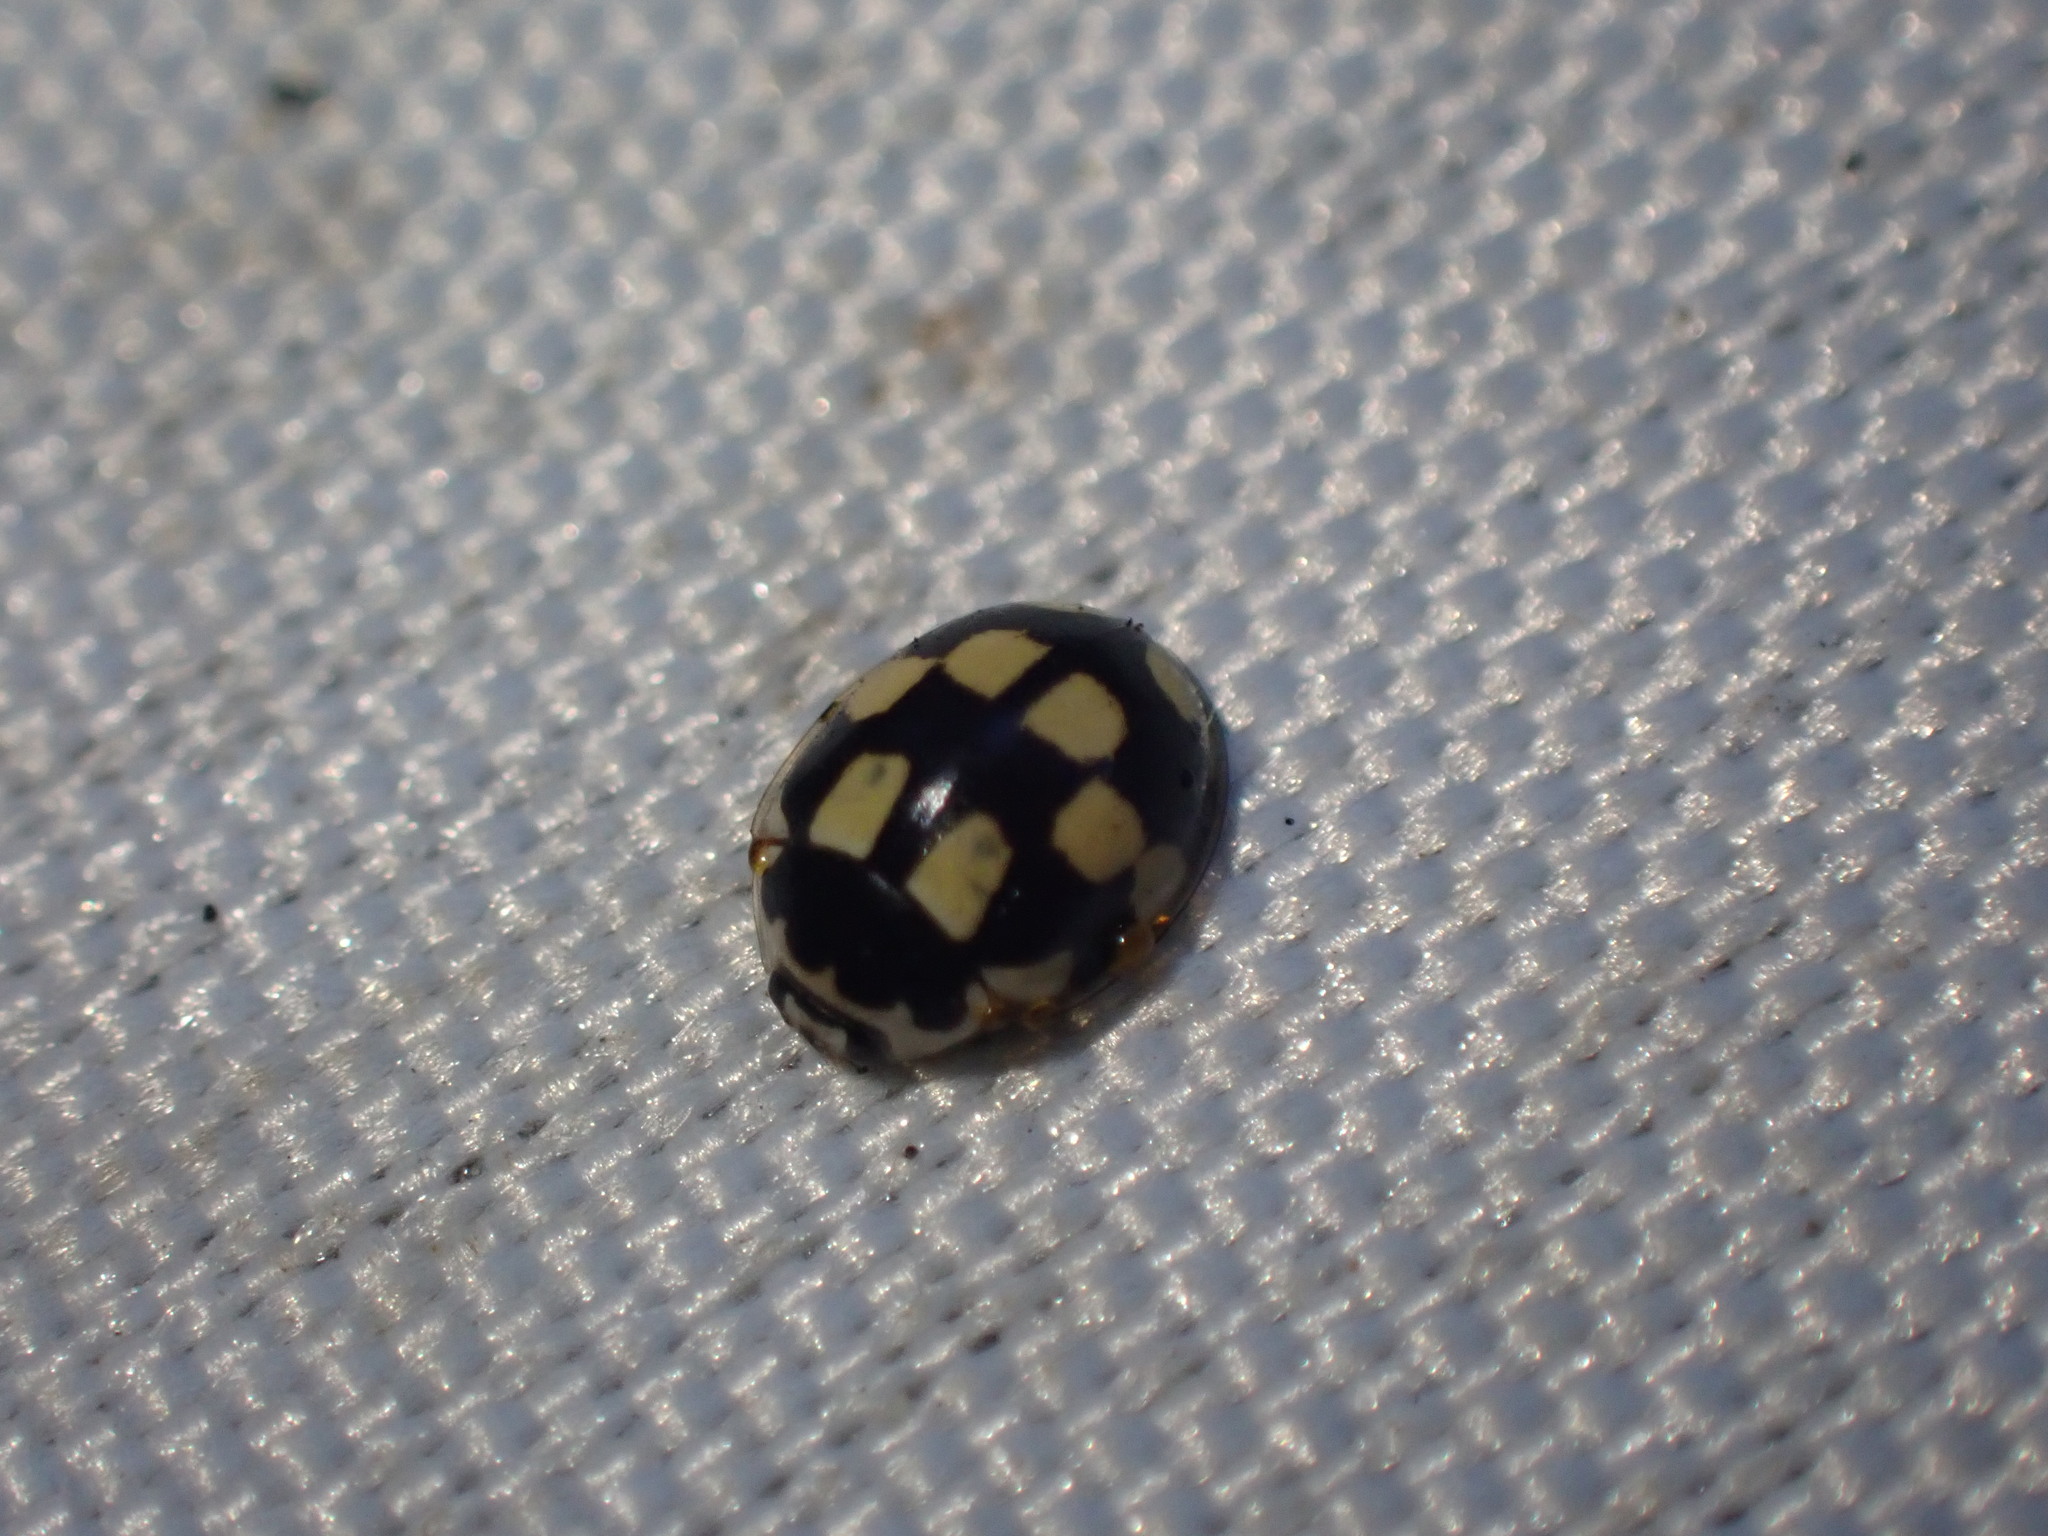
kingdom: Animalia
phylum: Arthropoda
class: Insecta
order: Coleoptera
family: Coccinellidae
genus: Propylaea
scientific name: Propylaea quatuordecimpunctata
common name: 14-spotted ladybird beetle
